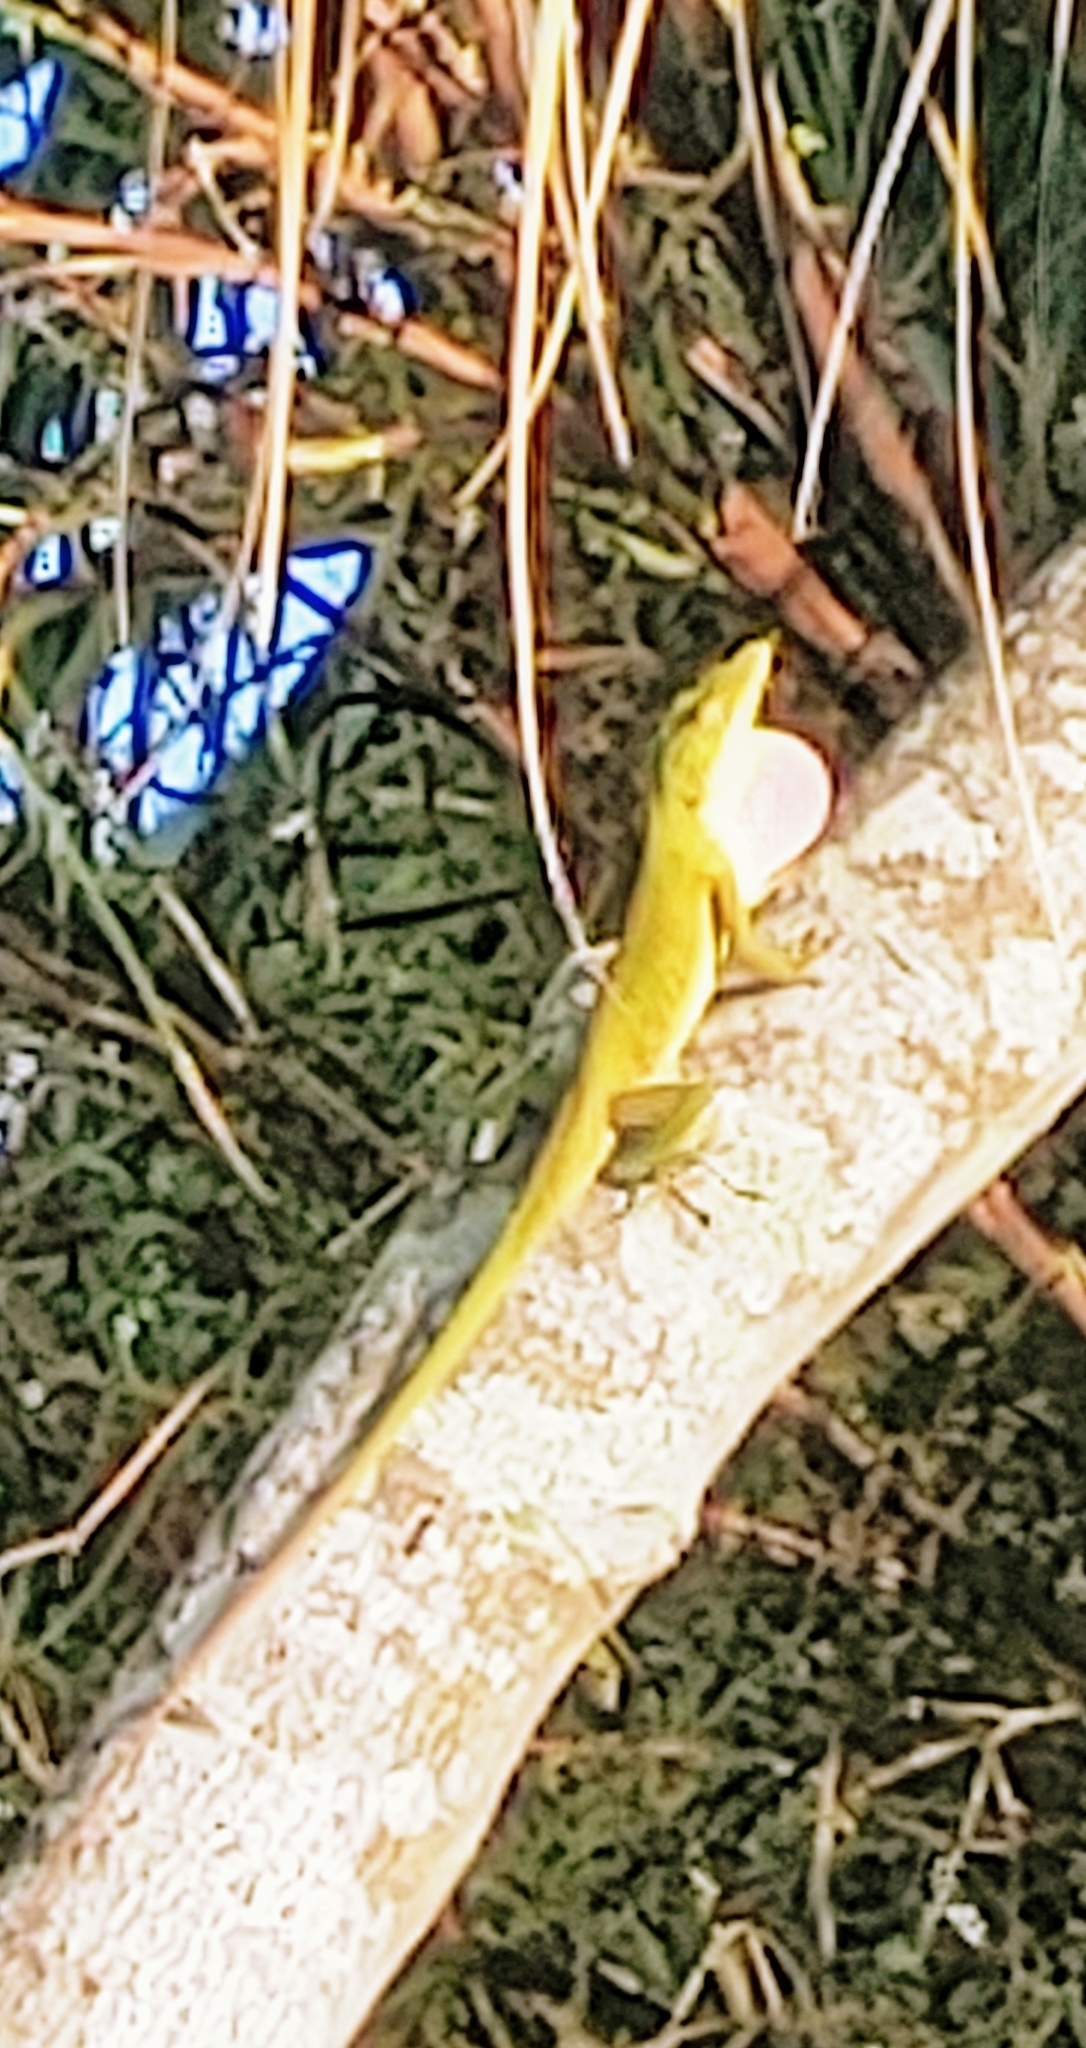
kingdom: Animalia
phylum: Chordata
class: Squamata
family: Dactyloidae
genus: Anolis
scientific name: Anolis carolinensis
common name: Green anole
